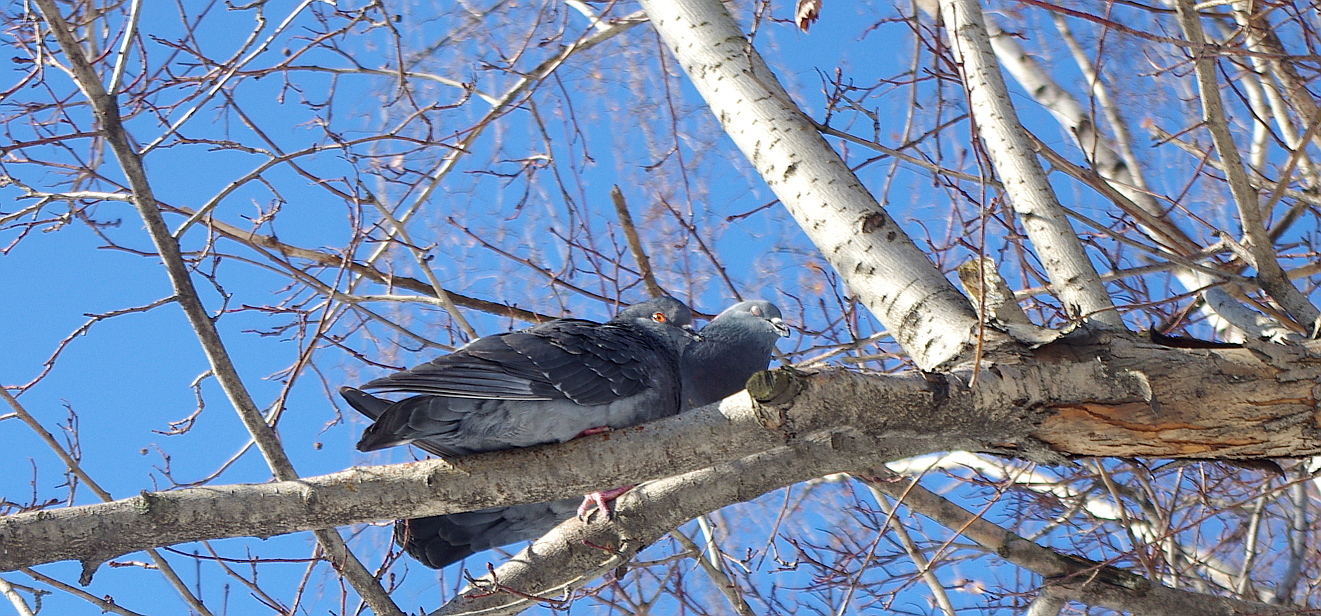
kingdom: Animalia
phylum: Chordata
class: Aves
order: Columbiformes
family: Columbidae
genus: Columba
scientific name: Columba livia
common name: Rock pigeon
